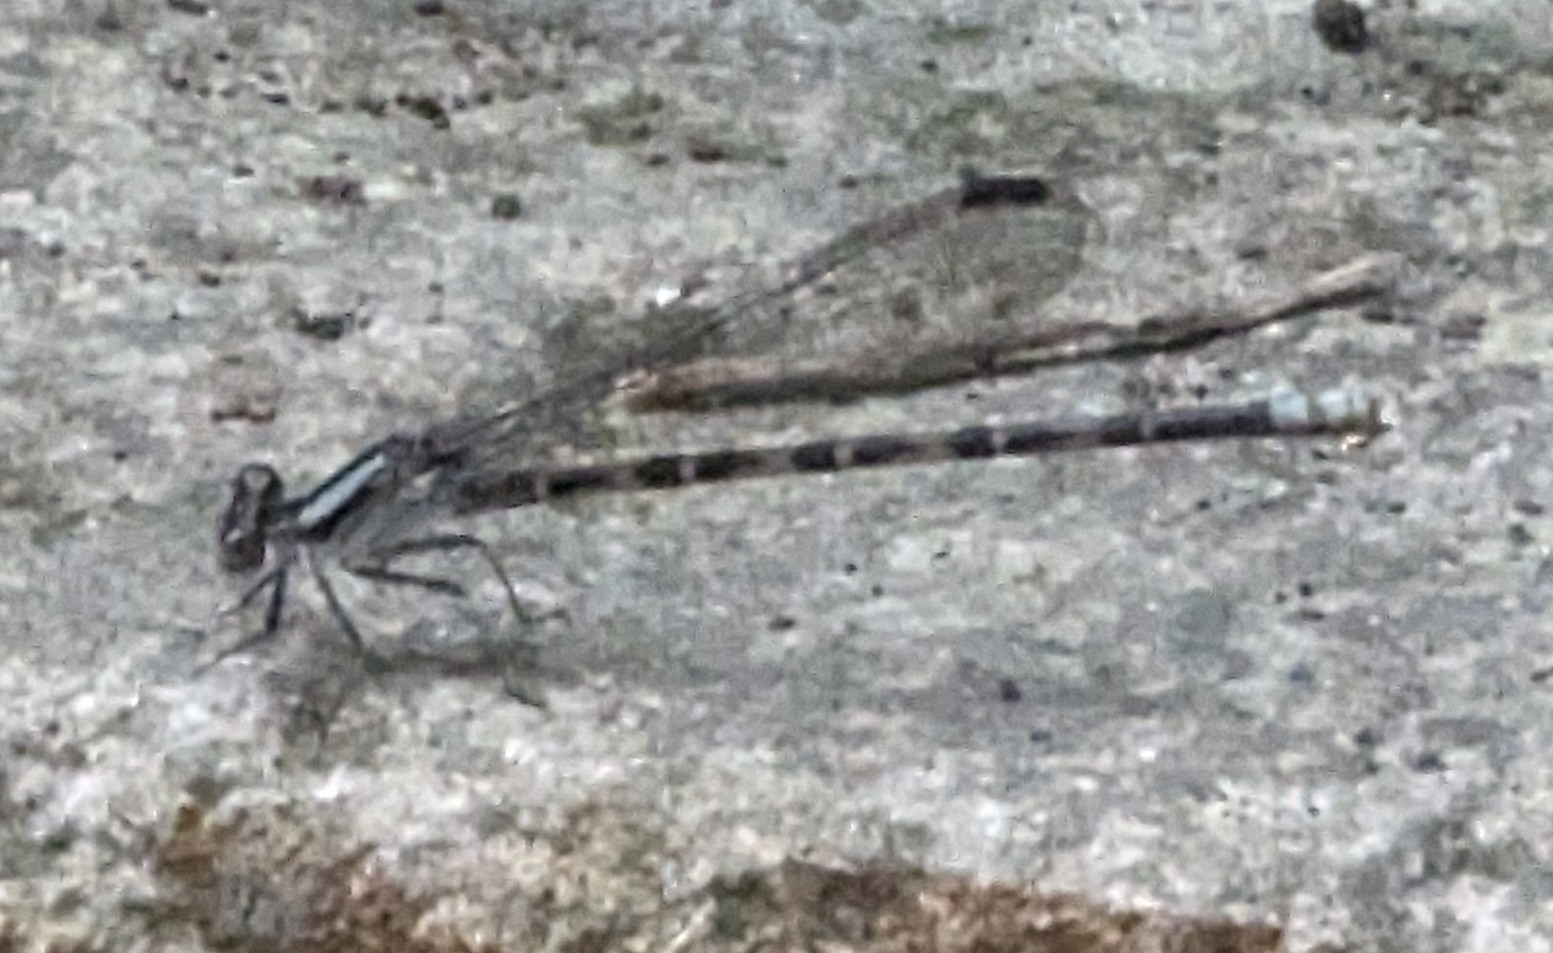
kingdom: Animalia
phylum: Arthropoda
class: Insecta
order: Odonata
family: Coenagrionidae
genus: Argia
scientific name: Argia immunda
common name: Kiowa dancer
